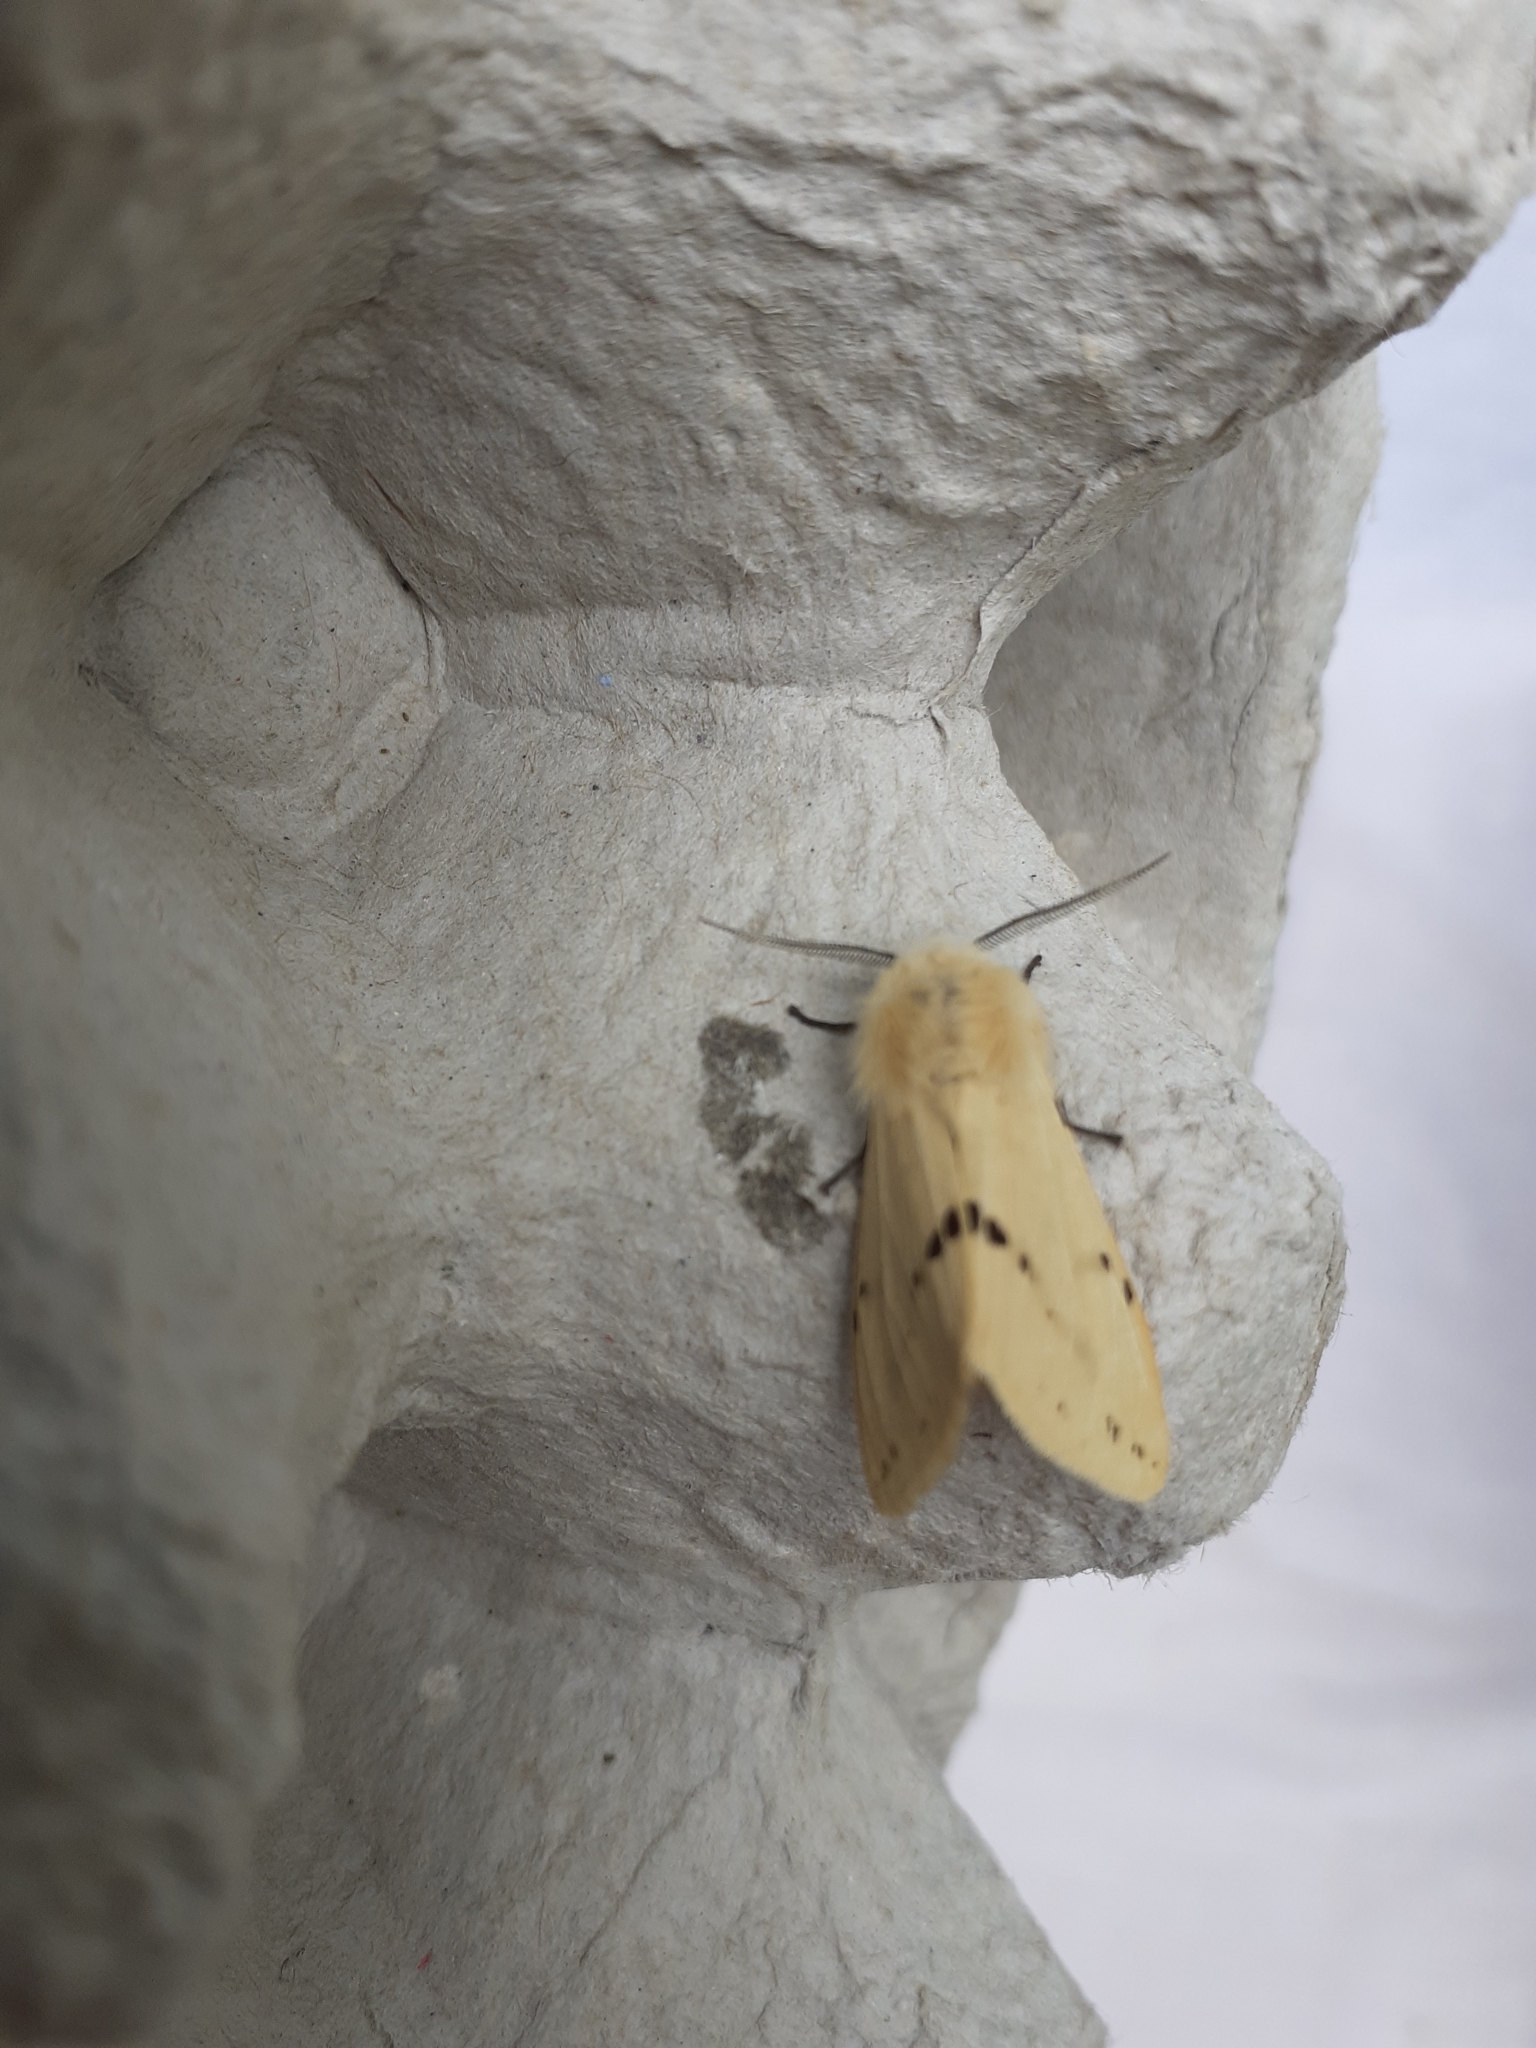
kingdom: Animalia
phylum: Arthropoda
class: Insecta
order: Lepidoptera
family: Erebidae
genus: Spilarctia
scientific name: Spilarctia lutea
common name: Buff ermine
